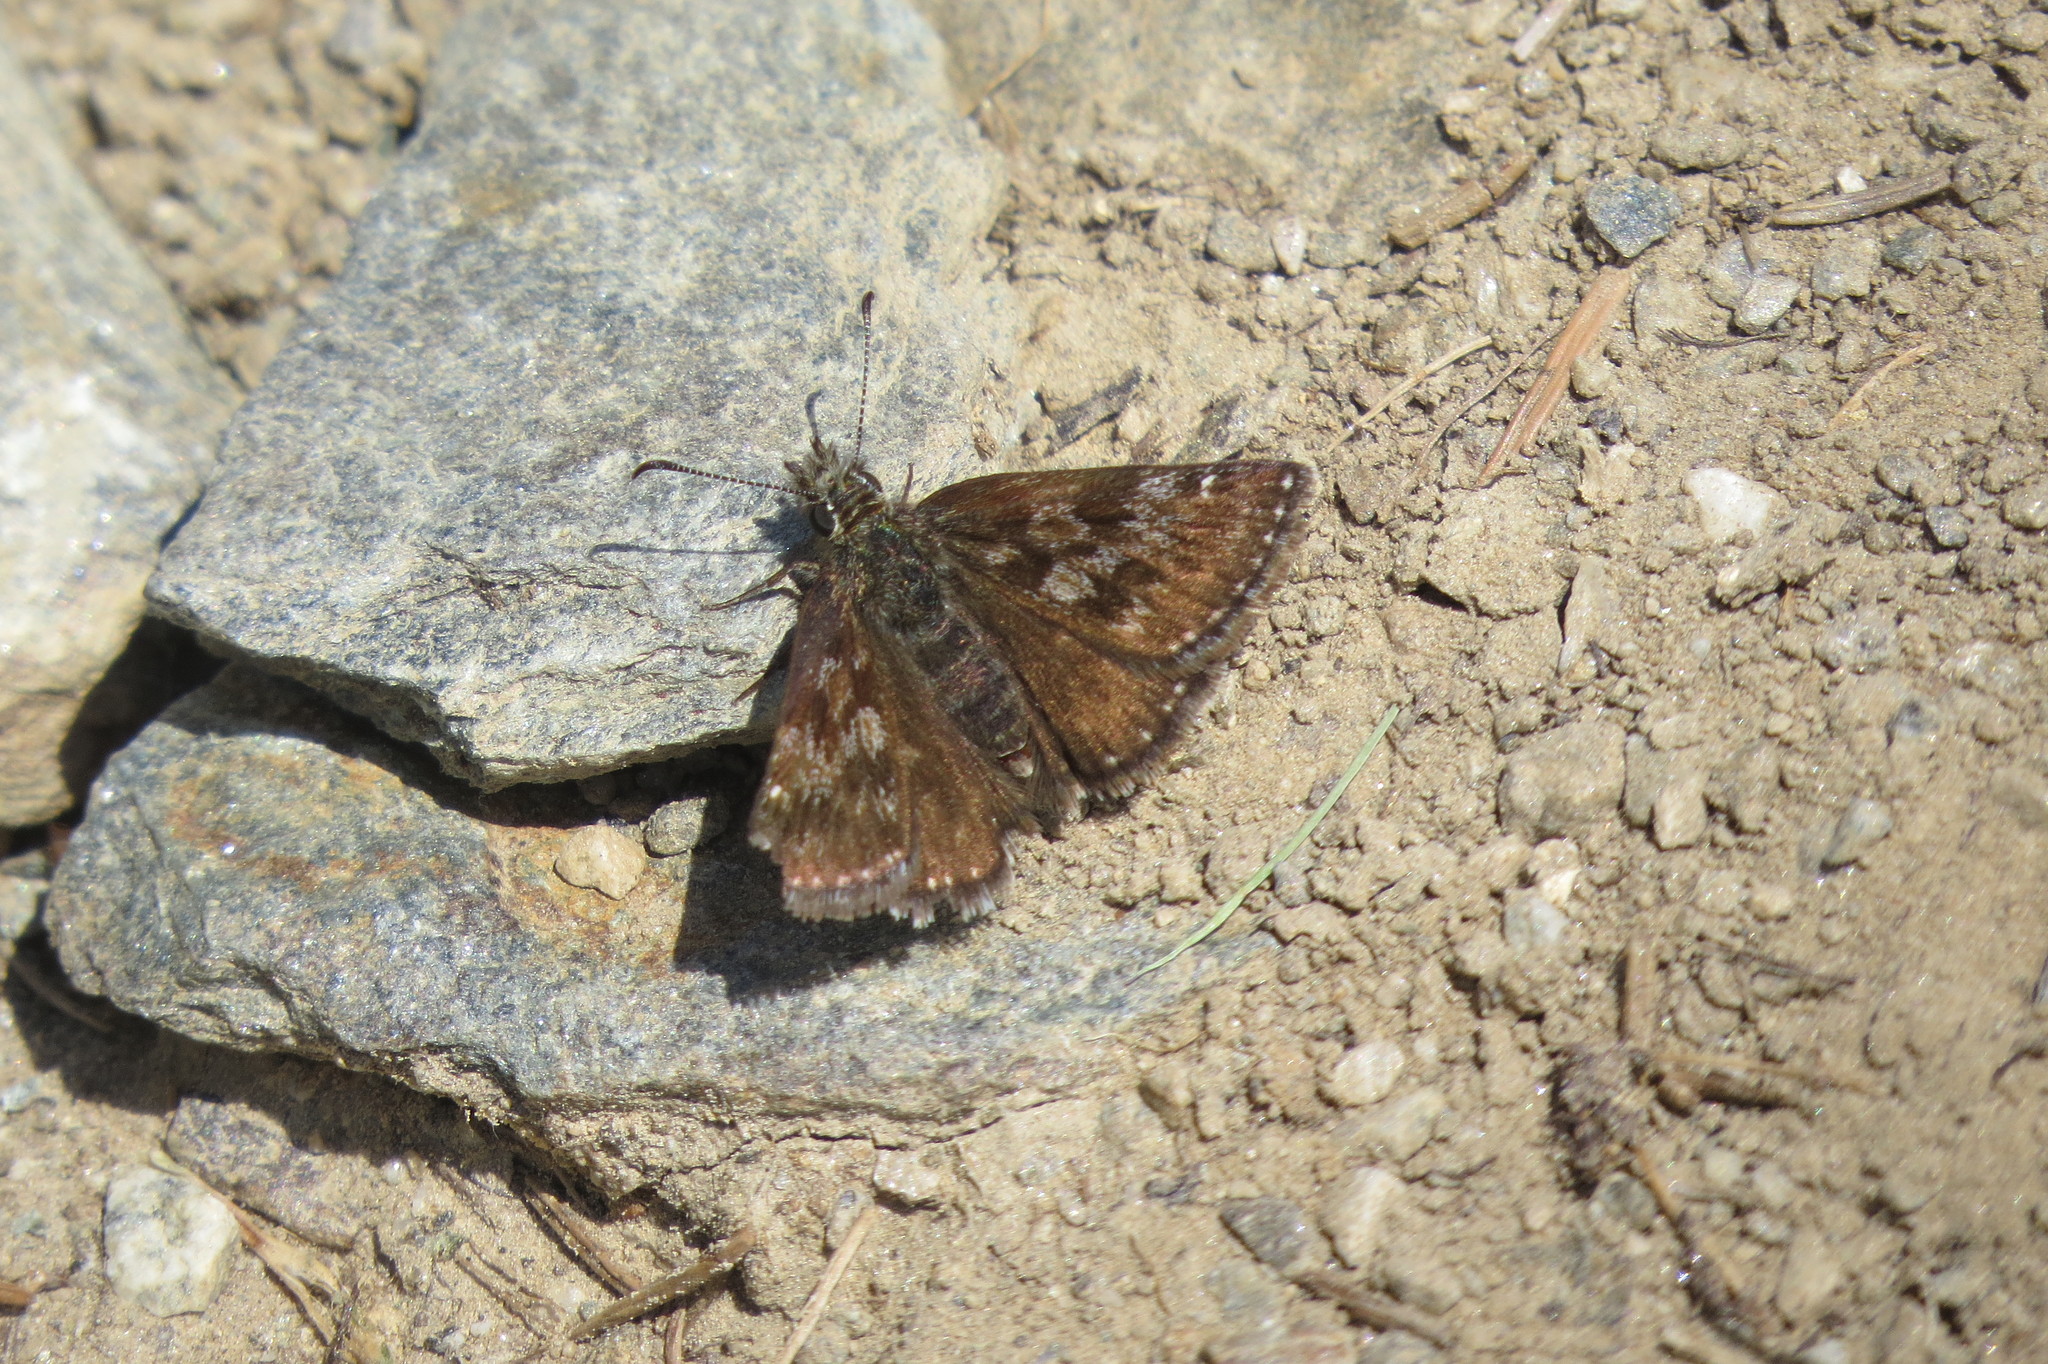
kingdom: Animalia
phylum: Arthropoda
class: Insecta
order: Lepidoptera
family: Hesperiidae
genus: Erynnis
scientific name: Erynnis tages
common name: Dingy skipper
